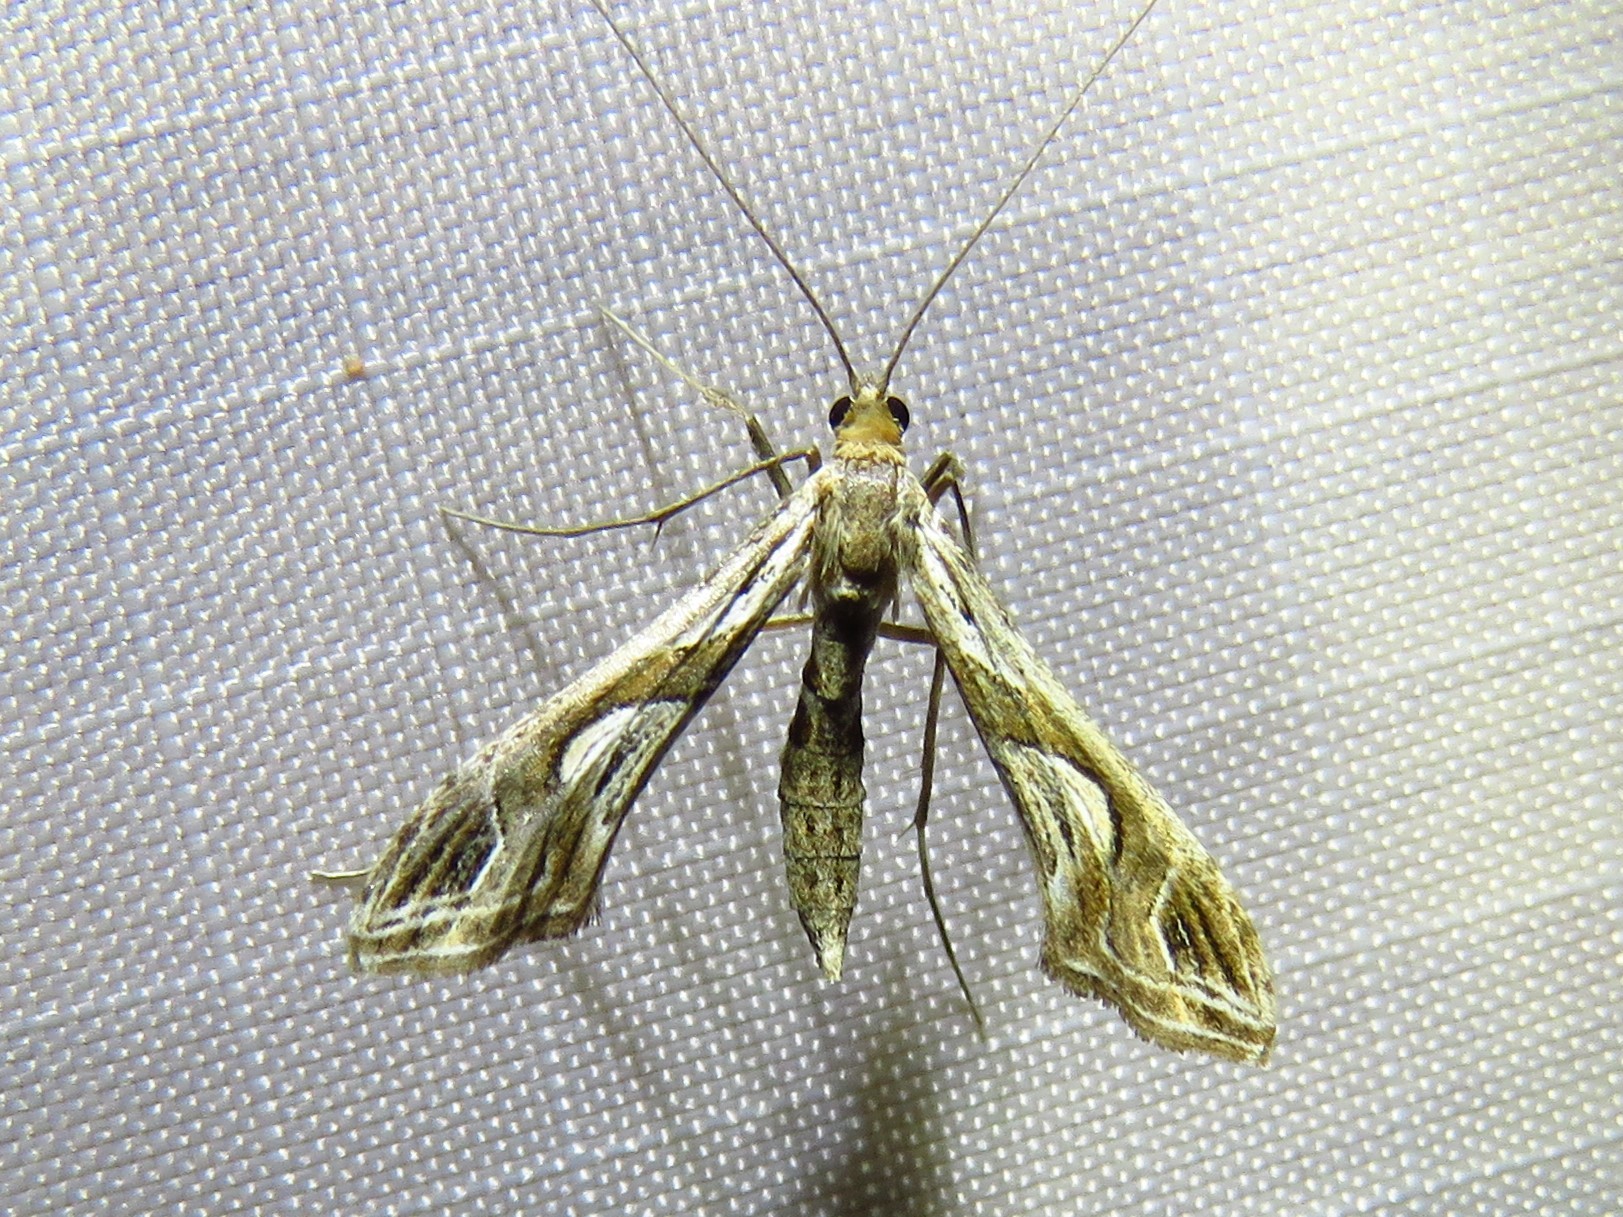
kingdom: Animalia
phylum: Arthropoda
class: Insecta
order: Lepidoptera
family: Crambidae
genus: Lineodes
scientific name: Lineodes integra
